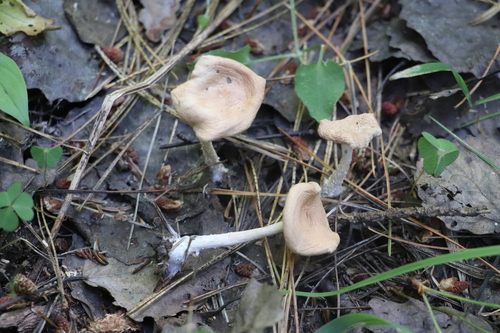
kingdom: Fungi
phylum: Basidiomycota
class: Agaricomycetes
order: Agaricales
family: Tricholomataceae
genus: Infundibulicybe
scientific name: Infundibulicybe gibba
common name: Common funnel
